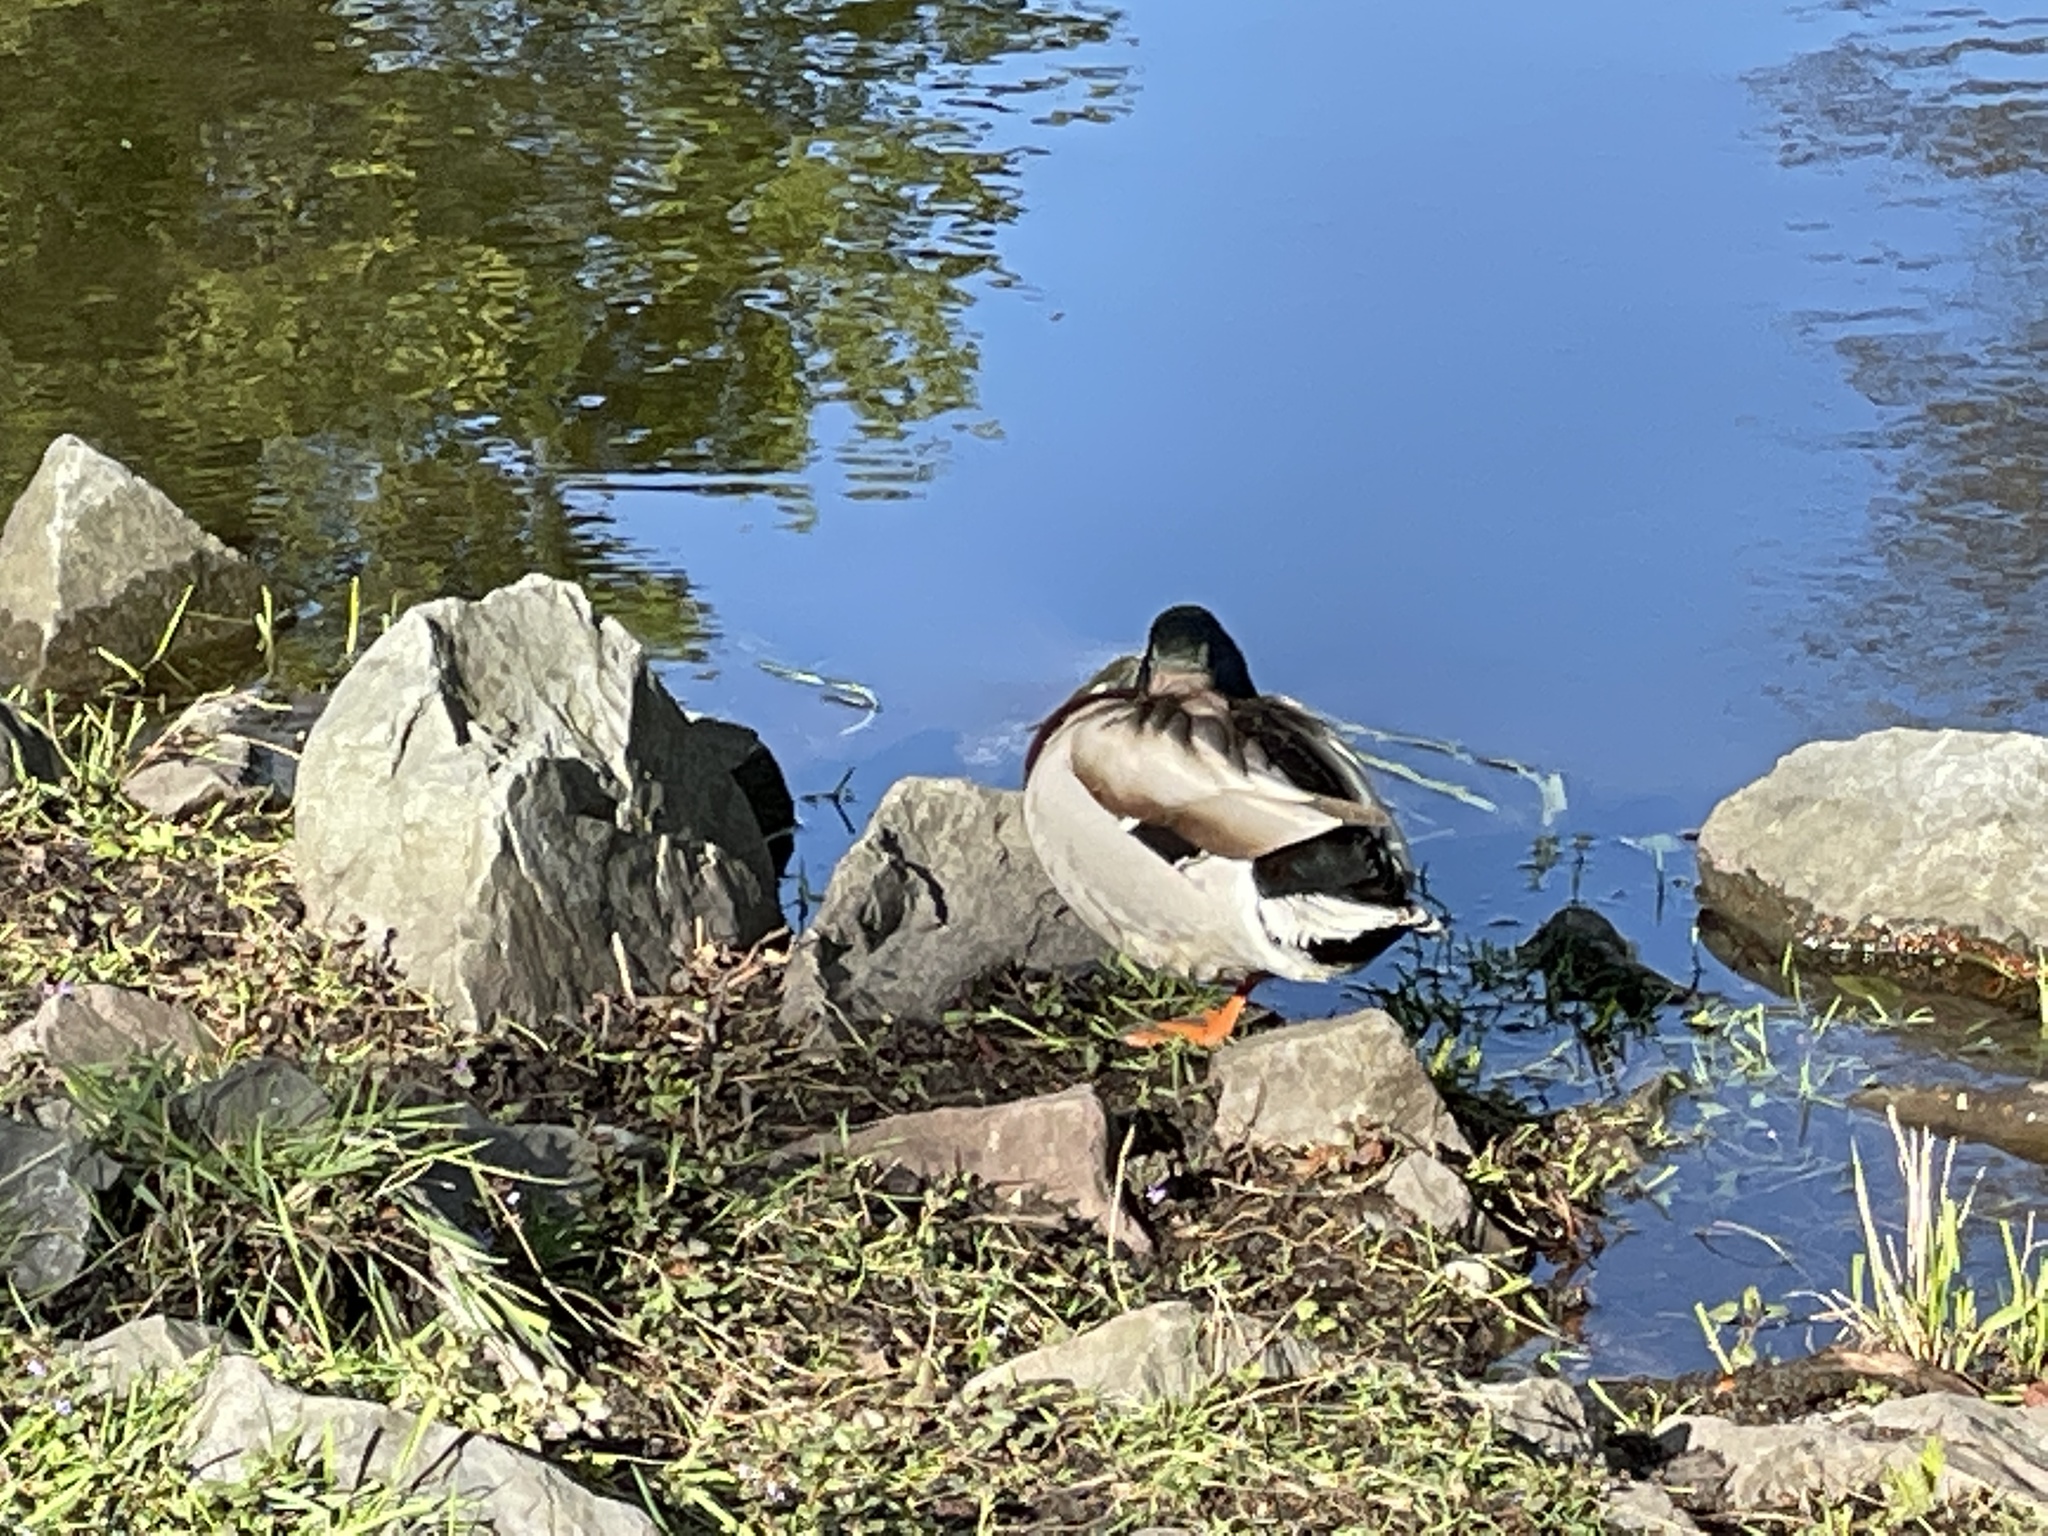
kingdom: Animalia
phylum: Chordata
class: Aves
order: Anseriformes
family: Anatidae
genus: Anas
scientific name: Anas platyrhynchos
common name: Mallard
